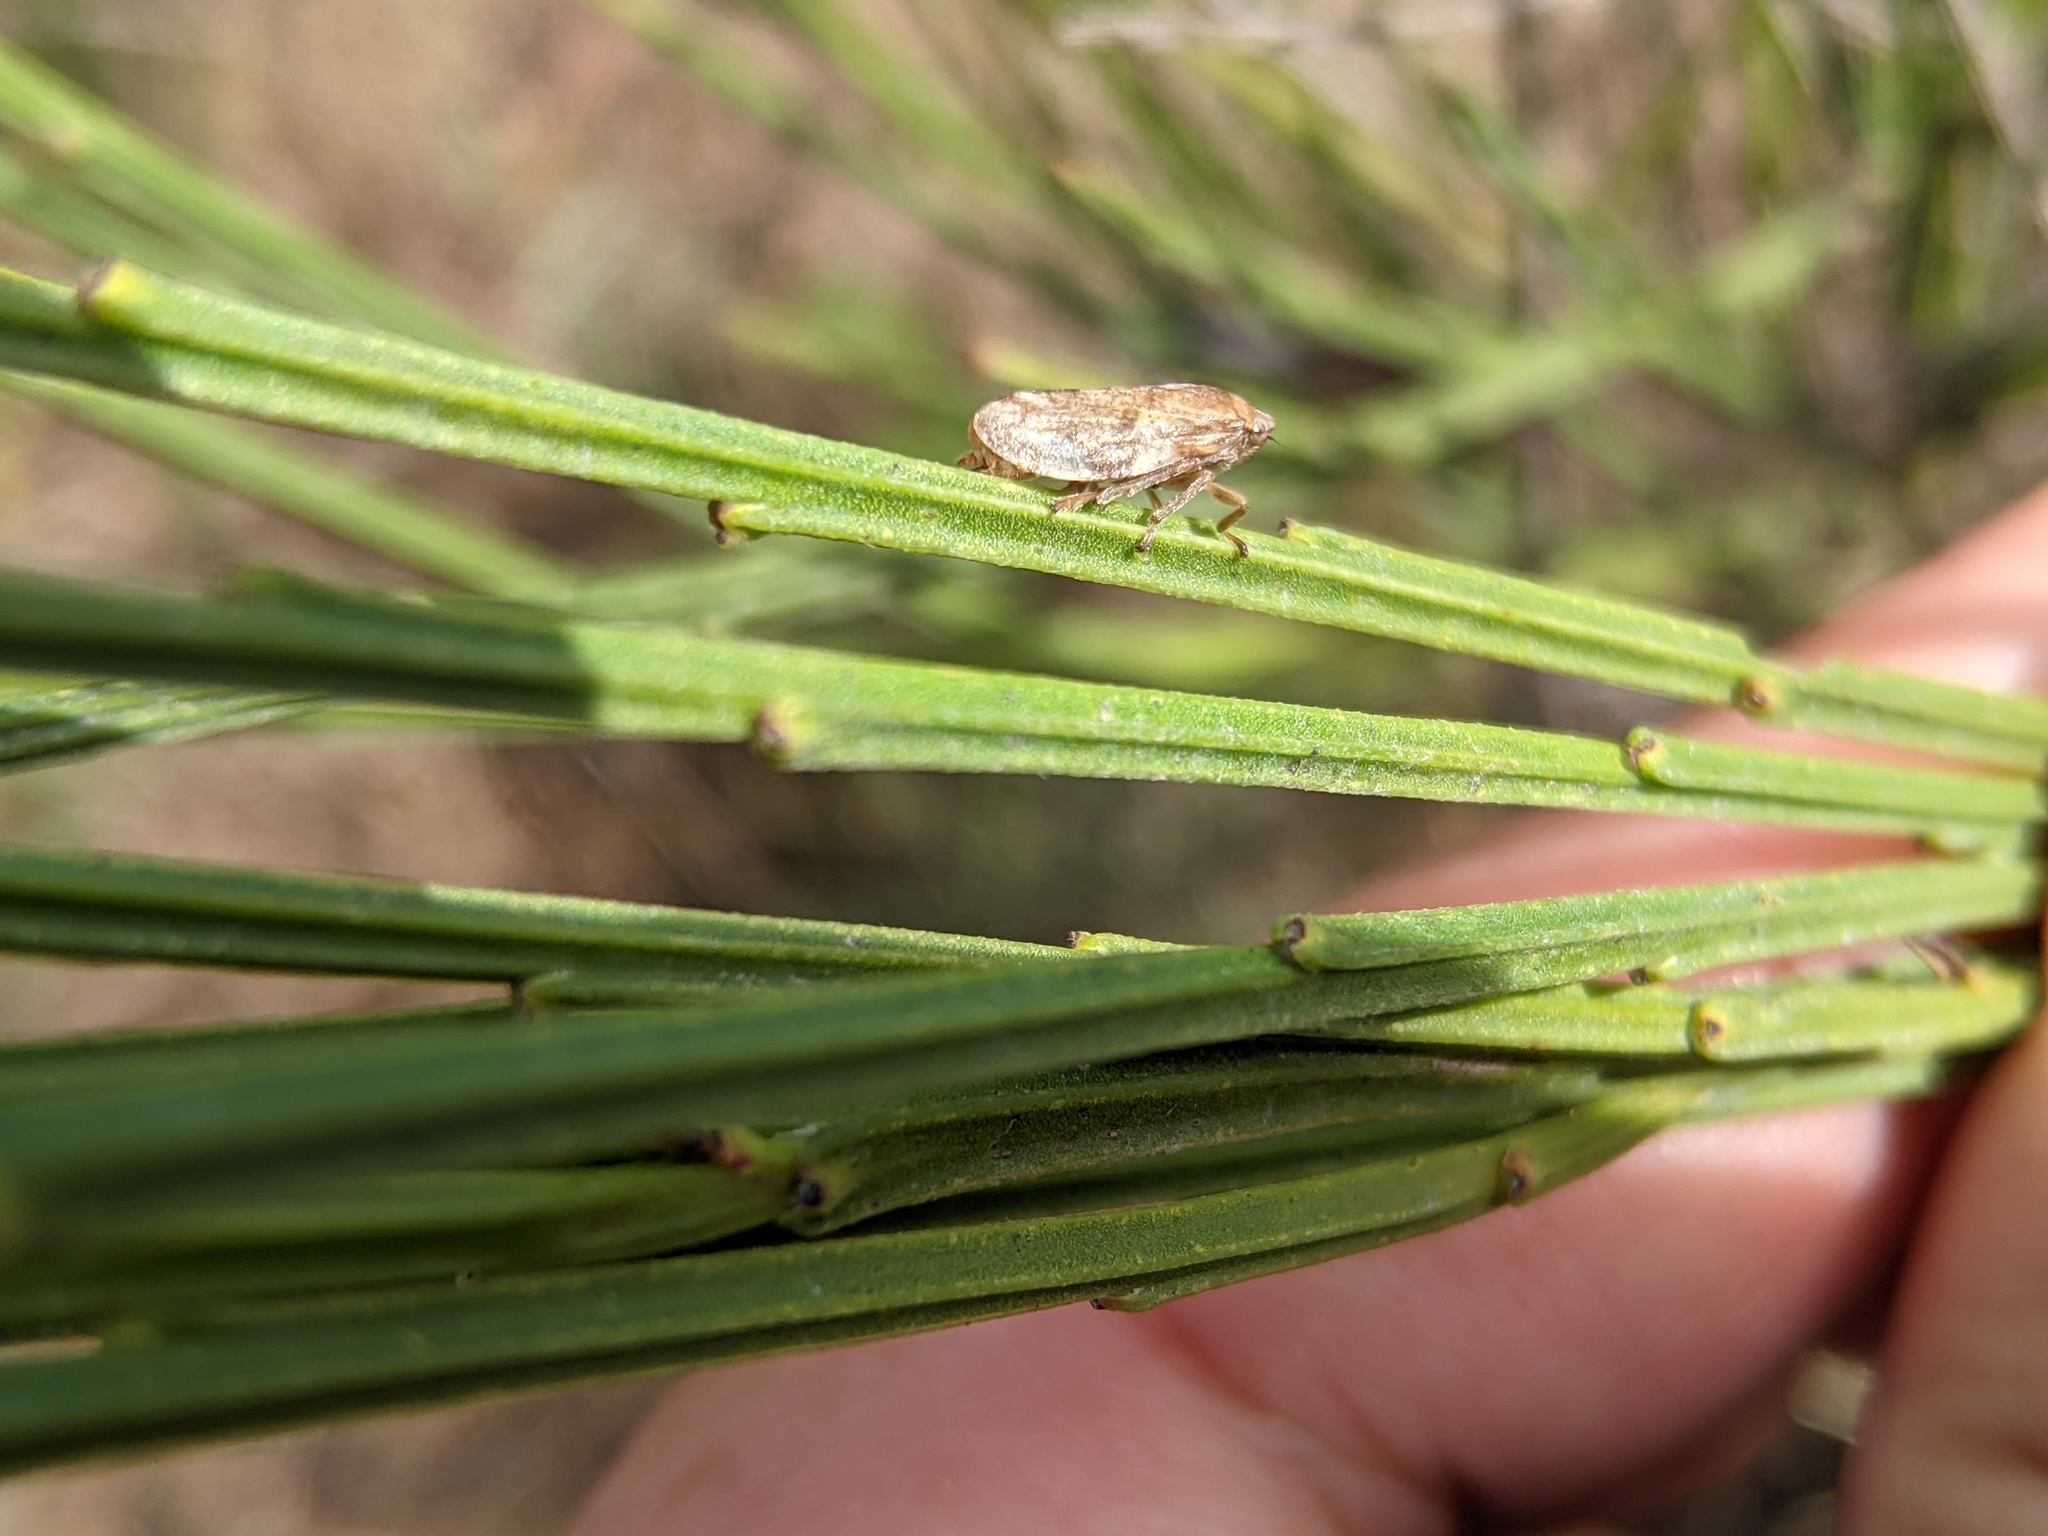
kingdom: Animalia
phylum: Arthropoda
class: Insecta
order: Hemiptera
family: Aphrophoridae
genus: Philaenus
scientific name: Philaenus spumarius
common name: Meadow spittlebug
